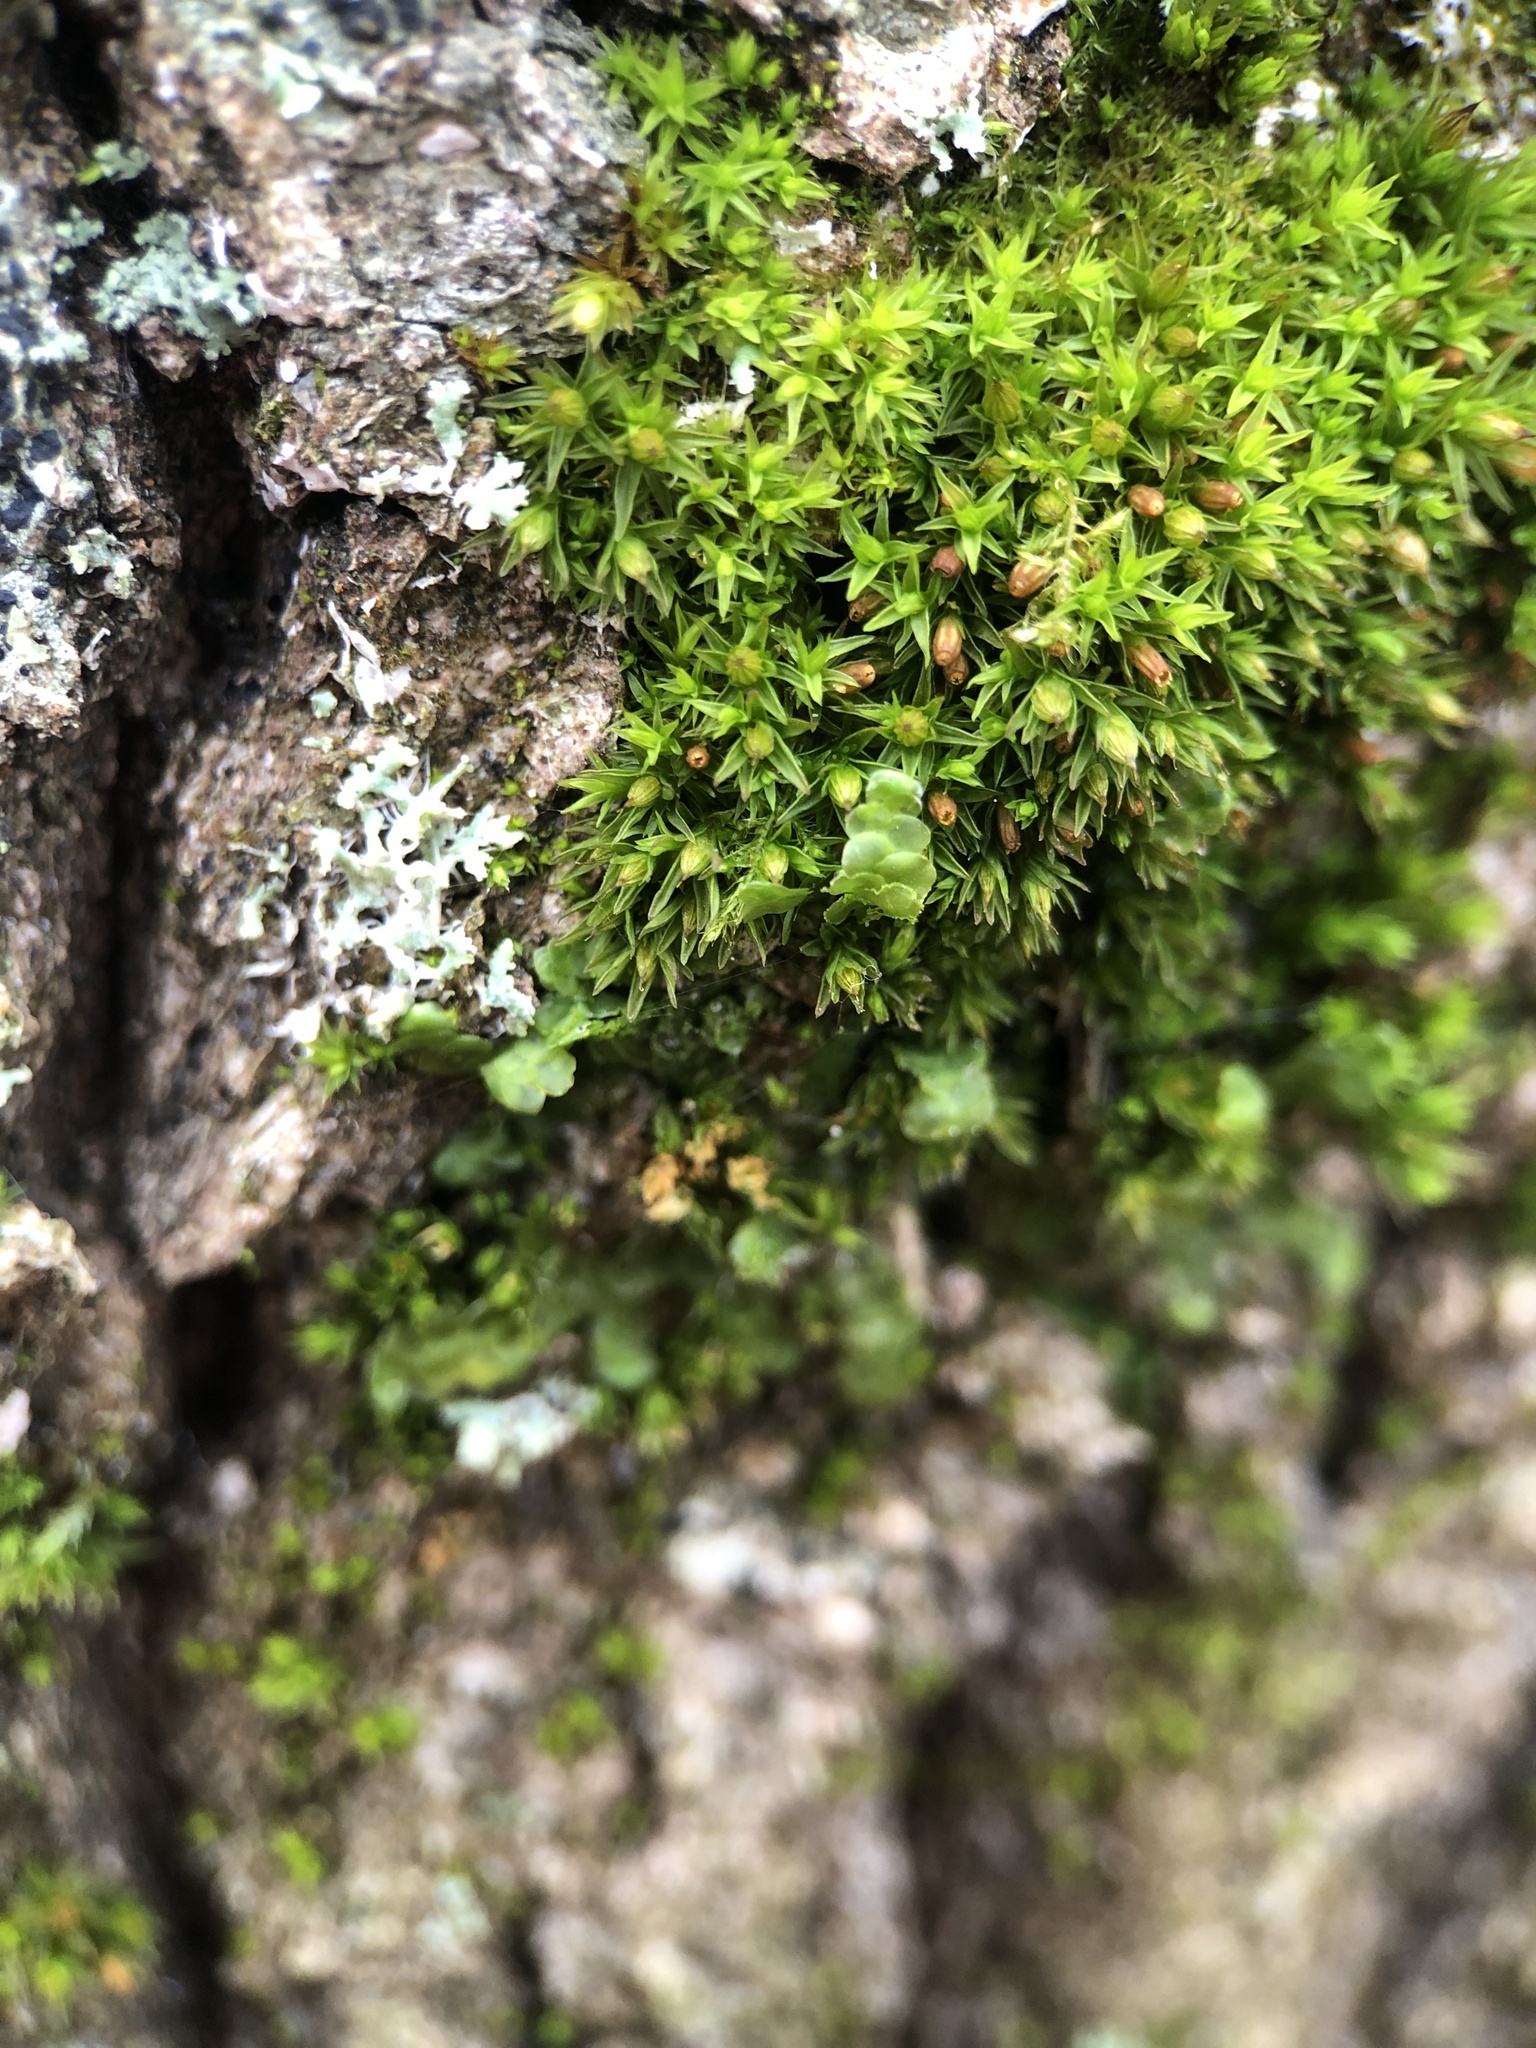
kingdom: Plantae
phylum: Marchantiophyta
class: Jungermanniopsida
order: Porellales
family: Radulaceae
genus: Radula
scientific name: Radula complanata
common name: Flat-leaved scalewort
